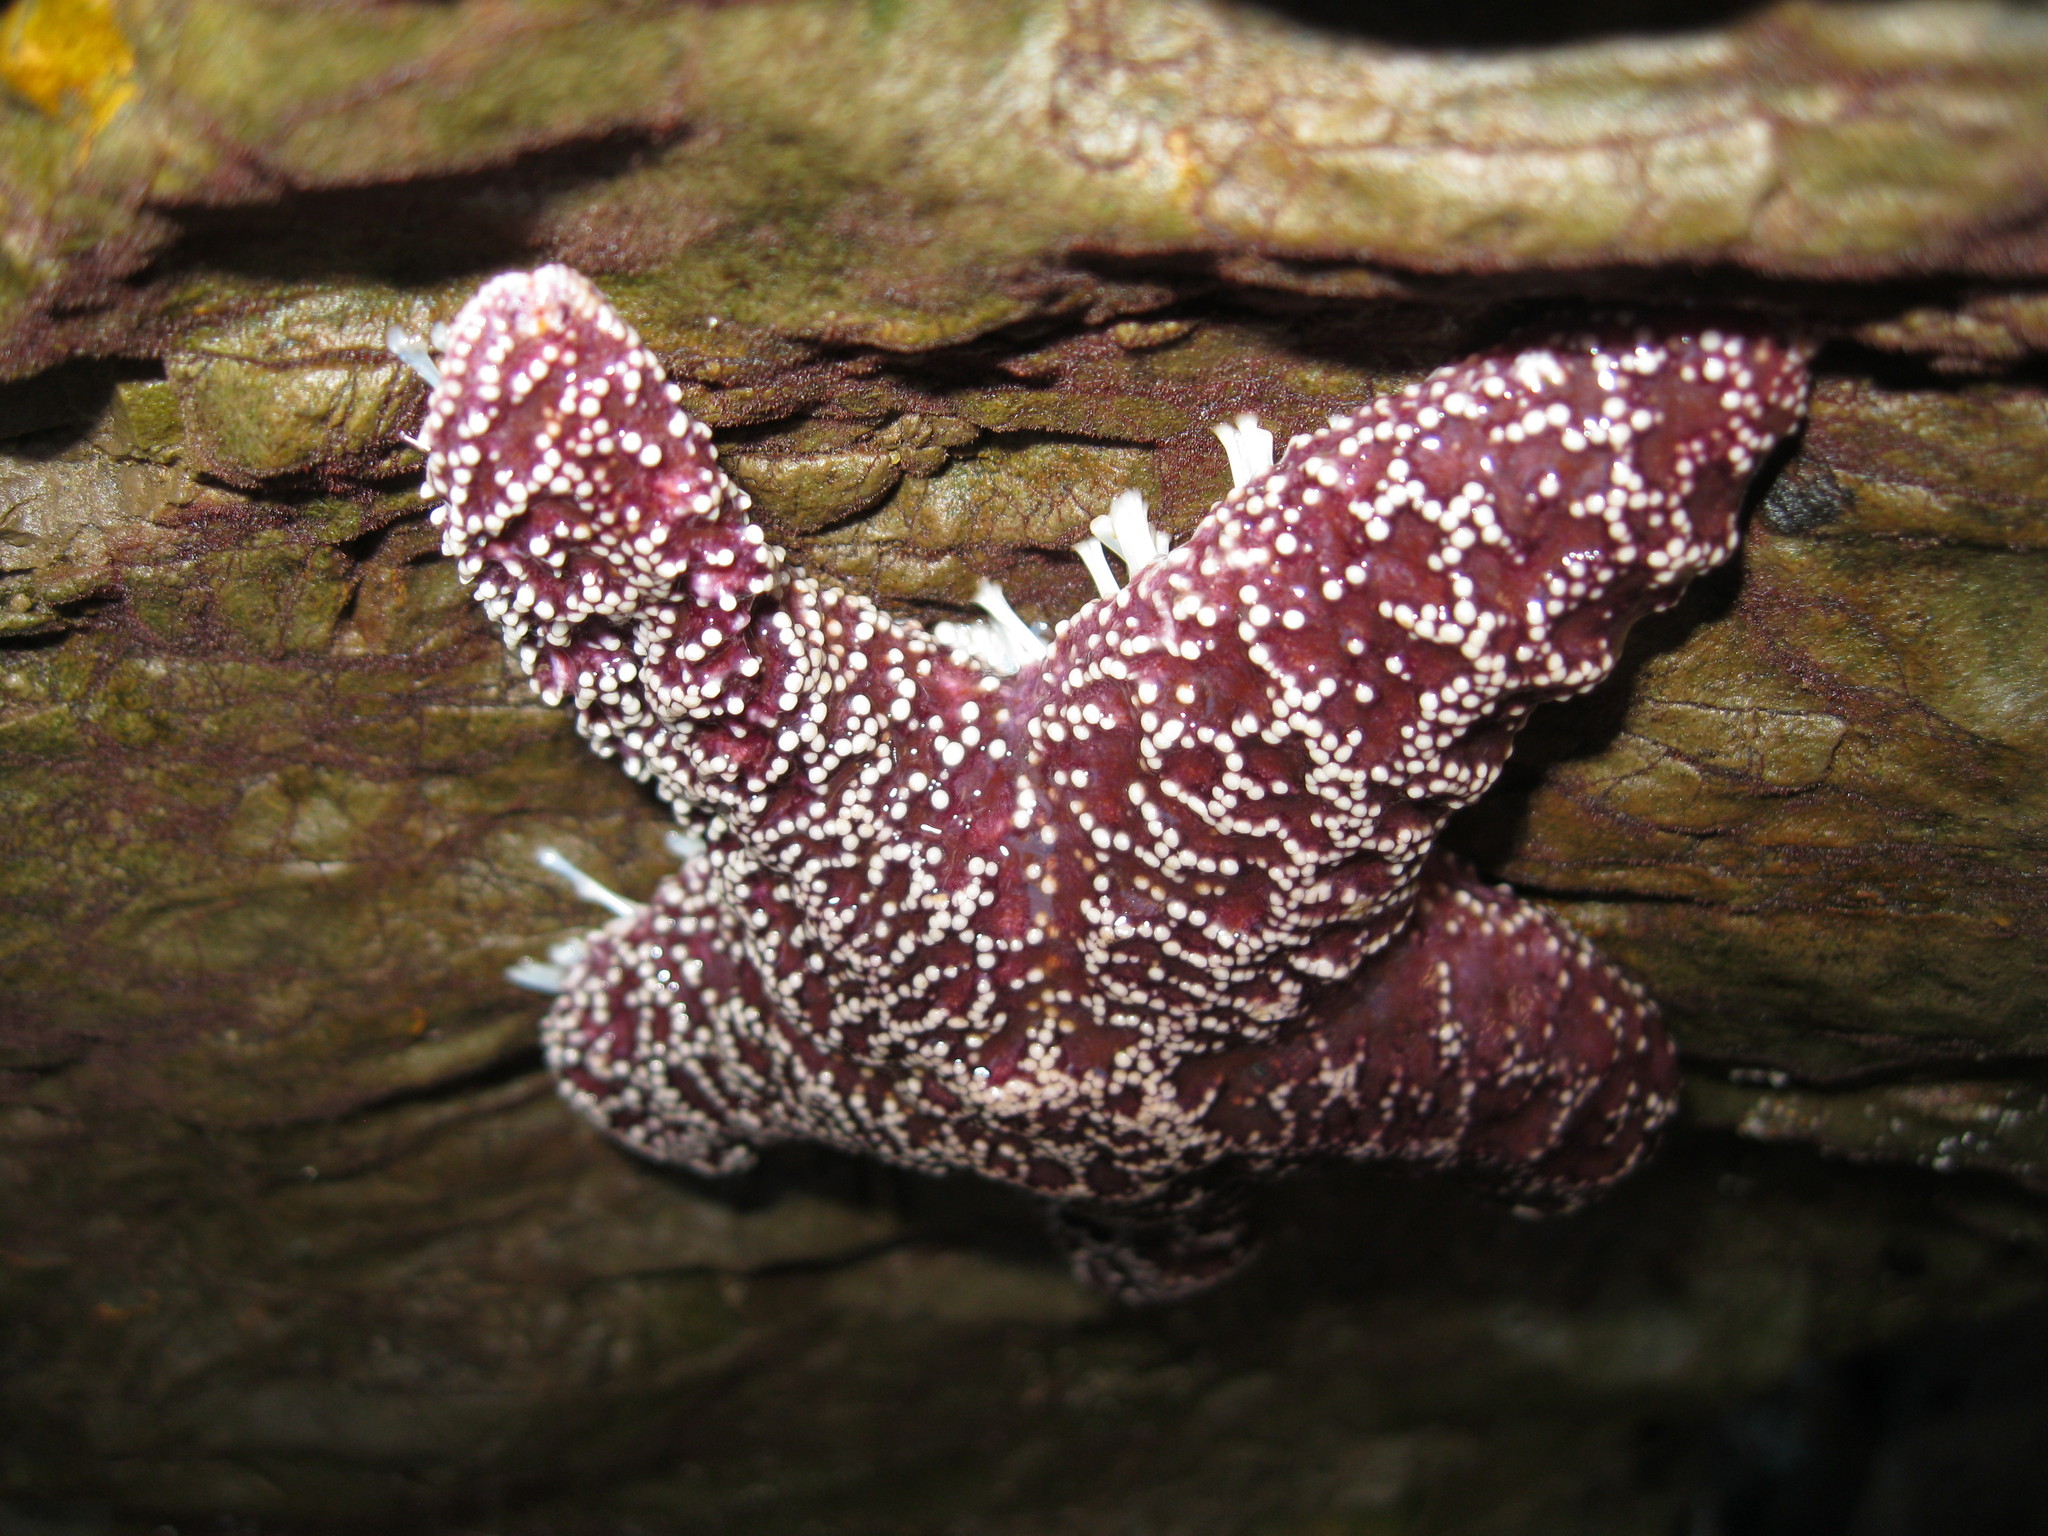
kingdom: Animalia
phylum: Echinodermata
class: Asteroidea
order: Forcipulatida
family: Asteriidae
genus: Pisaster
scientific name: Pisaster ochraceus
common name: Ochre stars
